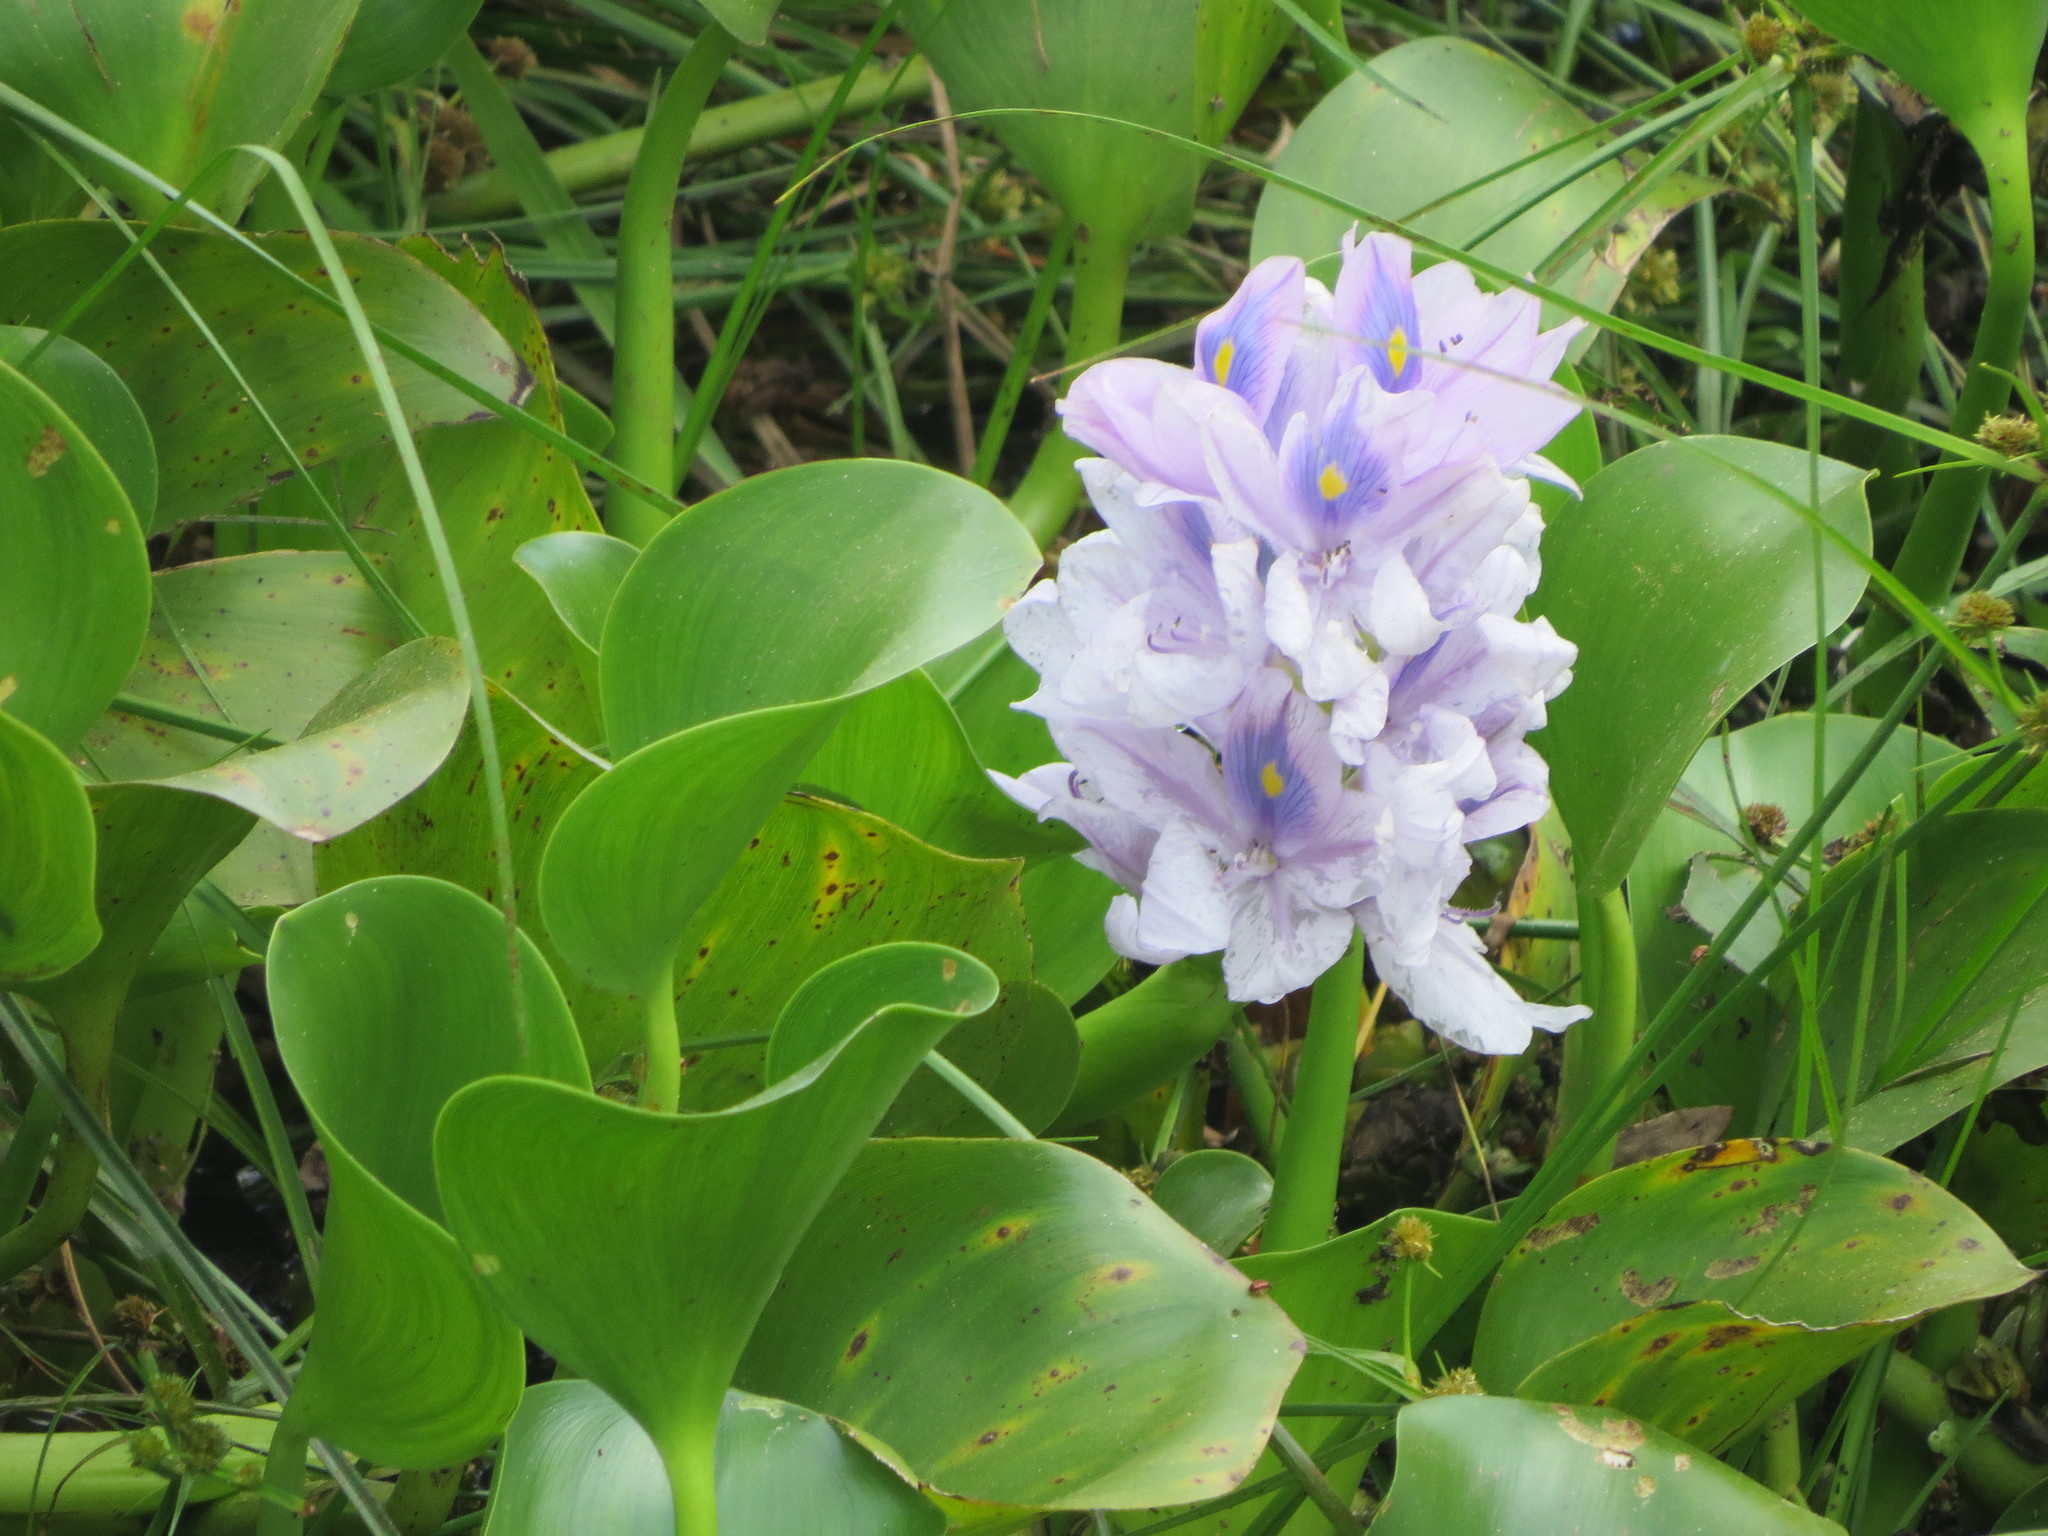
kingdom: Plantae
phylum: Tracheophyta
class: Liliopsida
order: Commelinales
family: Pontederiaceae
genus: Pontederia
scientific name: Pontederia crassipes
